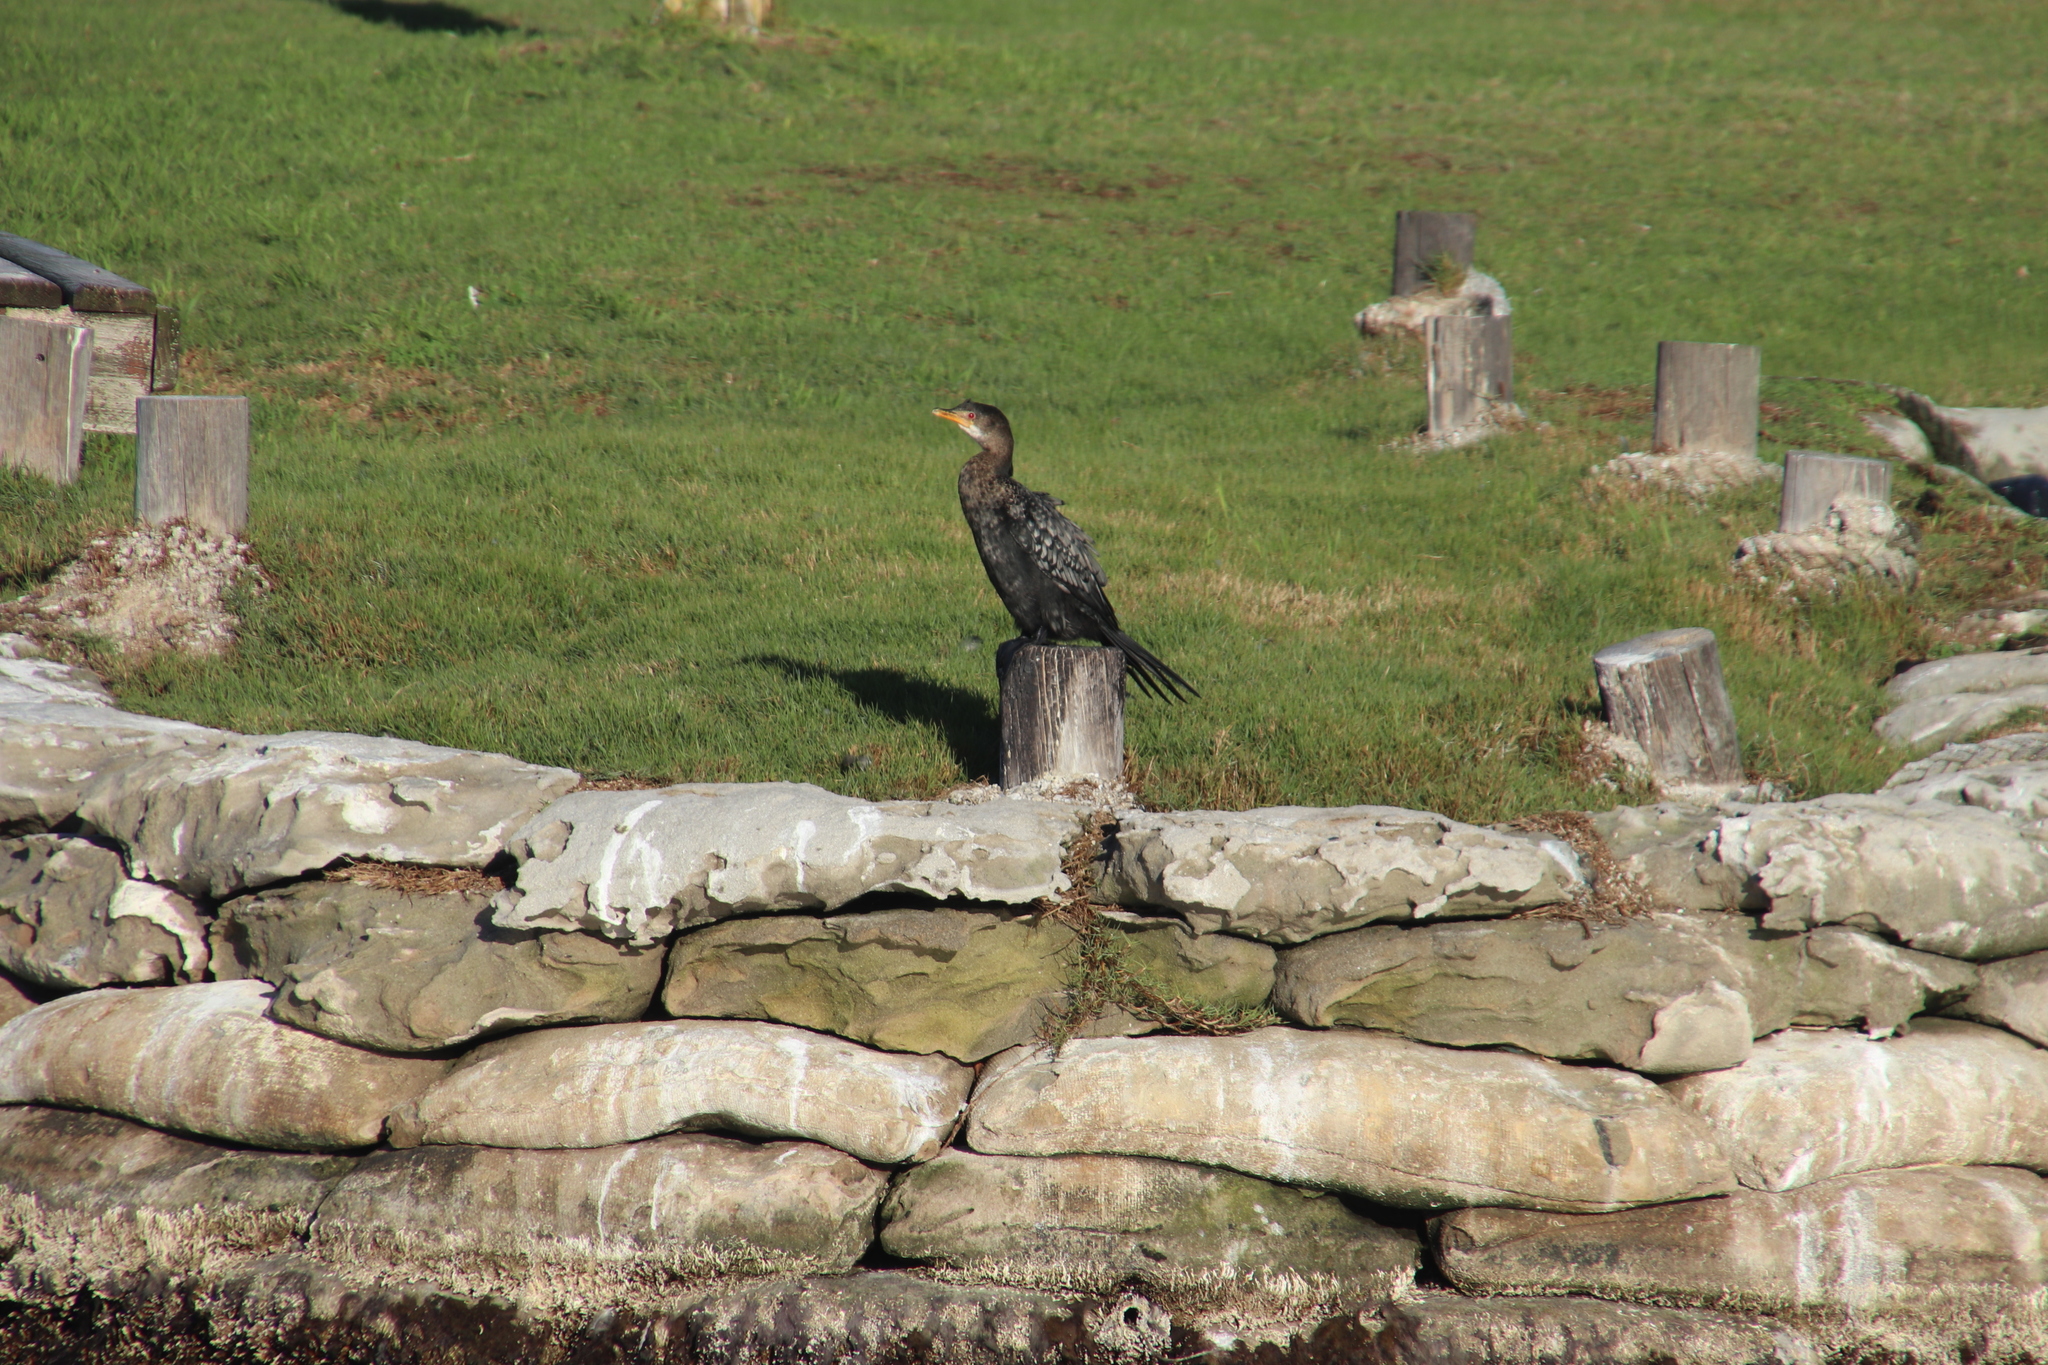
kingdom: Animalia
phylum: Chordata
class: Aves
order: Suliformes
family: Phalacrocoracidae
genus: Microcarbo
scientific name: Microcarbo africanus
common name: Long-tailed cormorant
